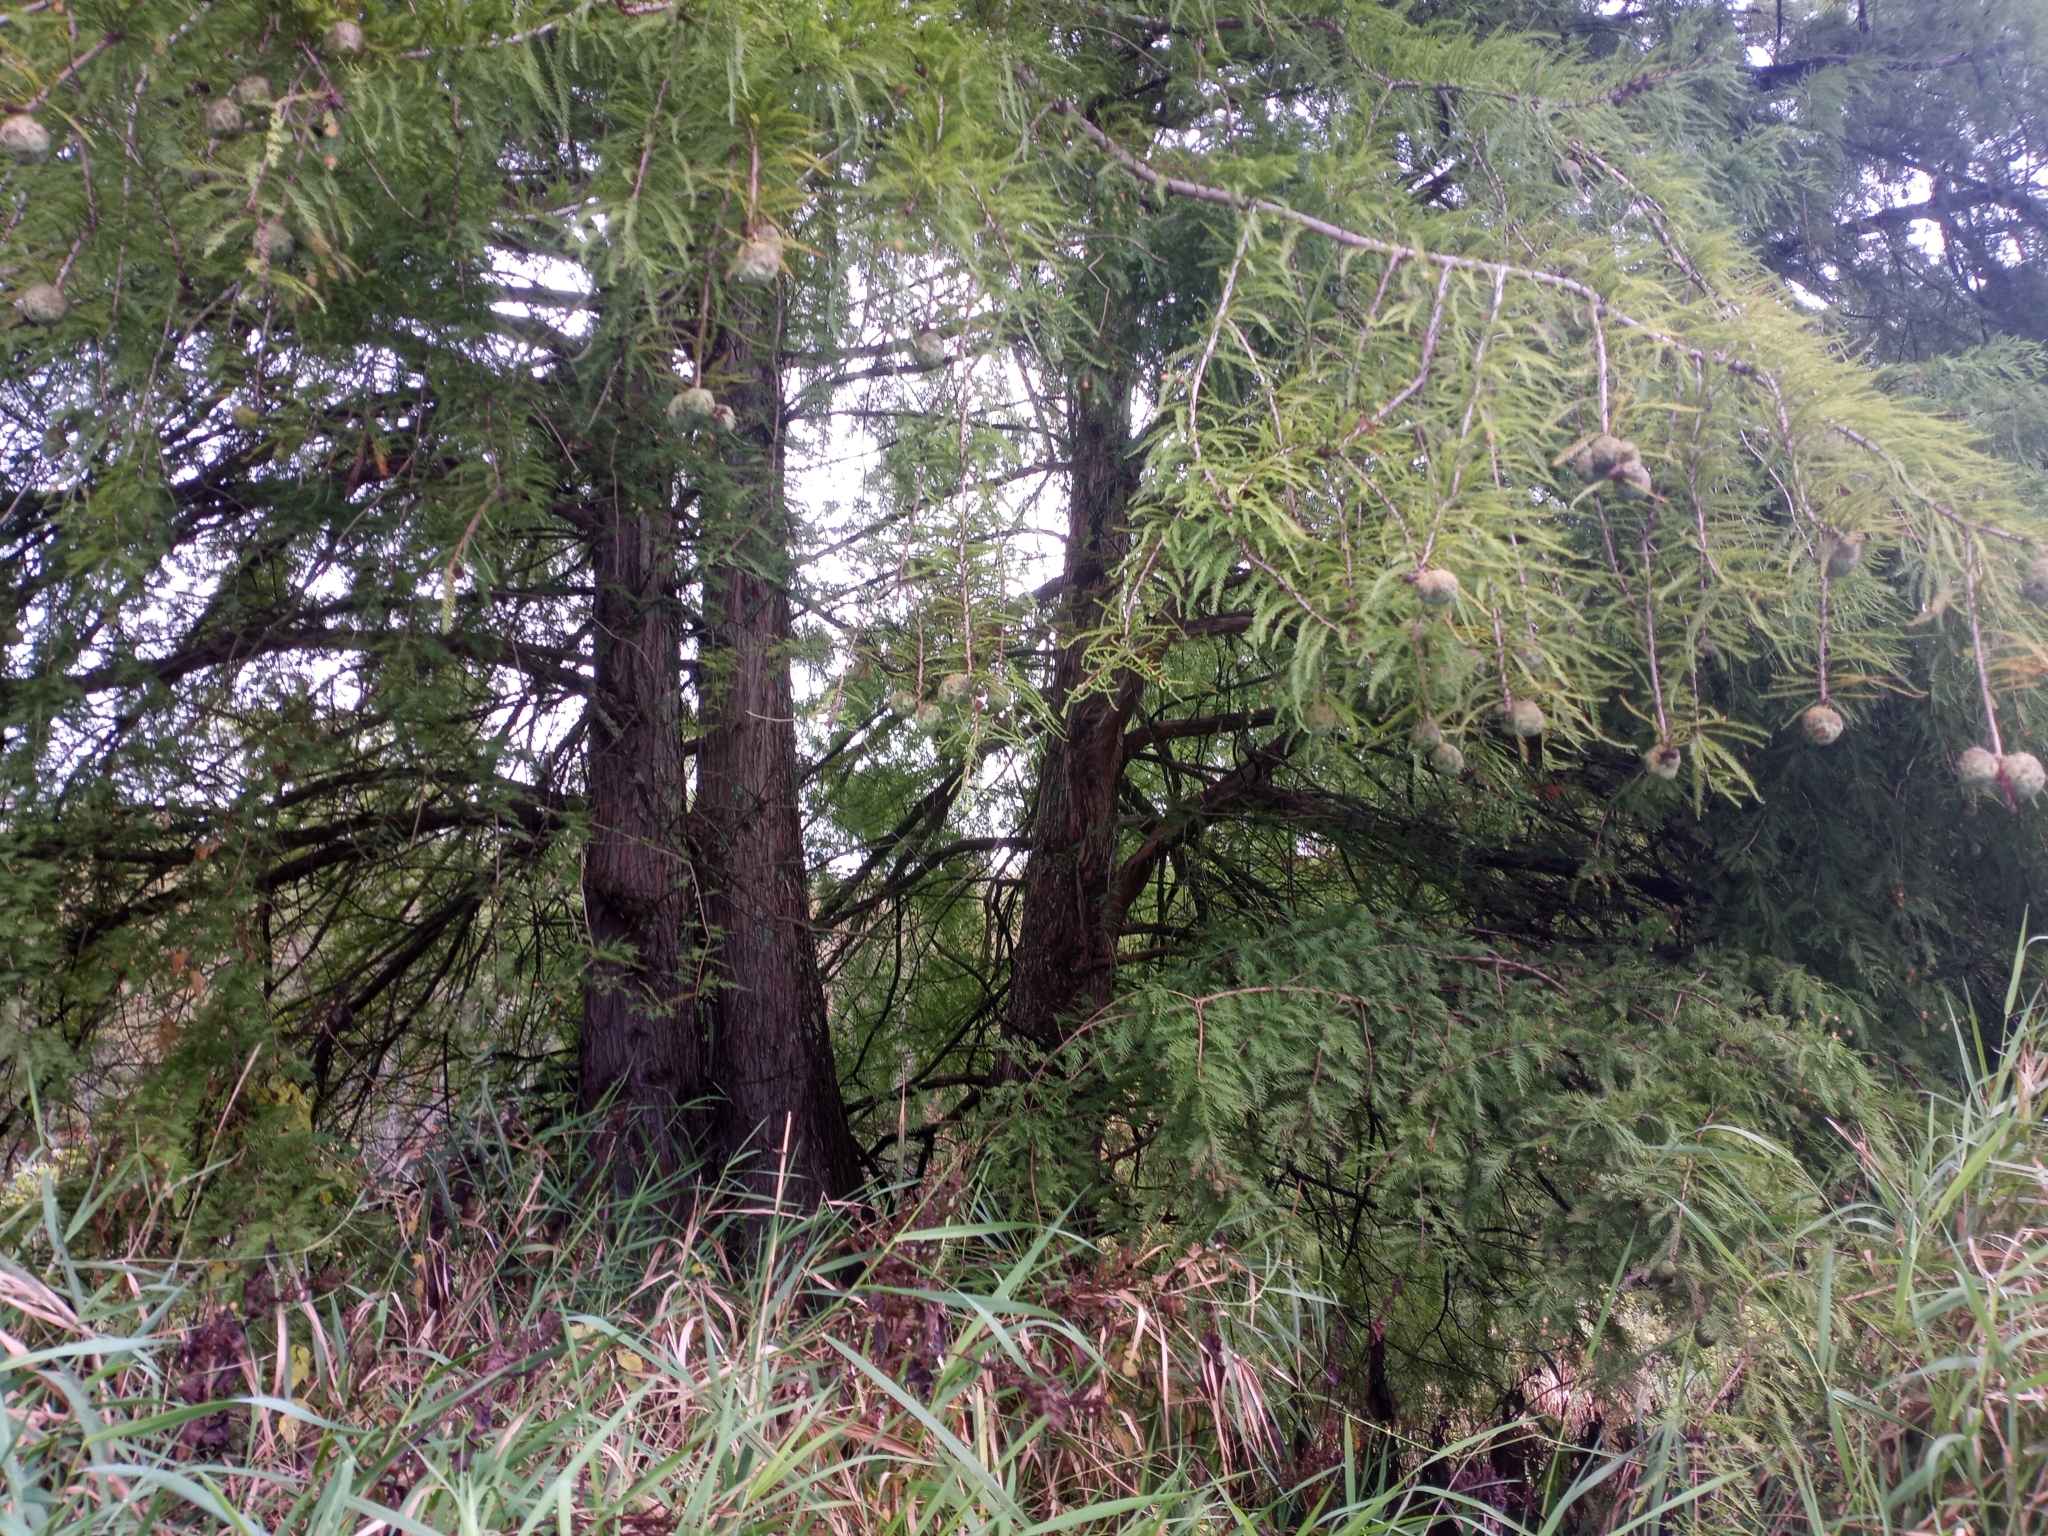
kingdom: Plantae
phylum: Tracheophyta
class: Pinopsida
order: Pinales
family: Cupressaceae
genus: Taxodium
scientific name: Taxodium distichum
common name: Bald cypress
